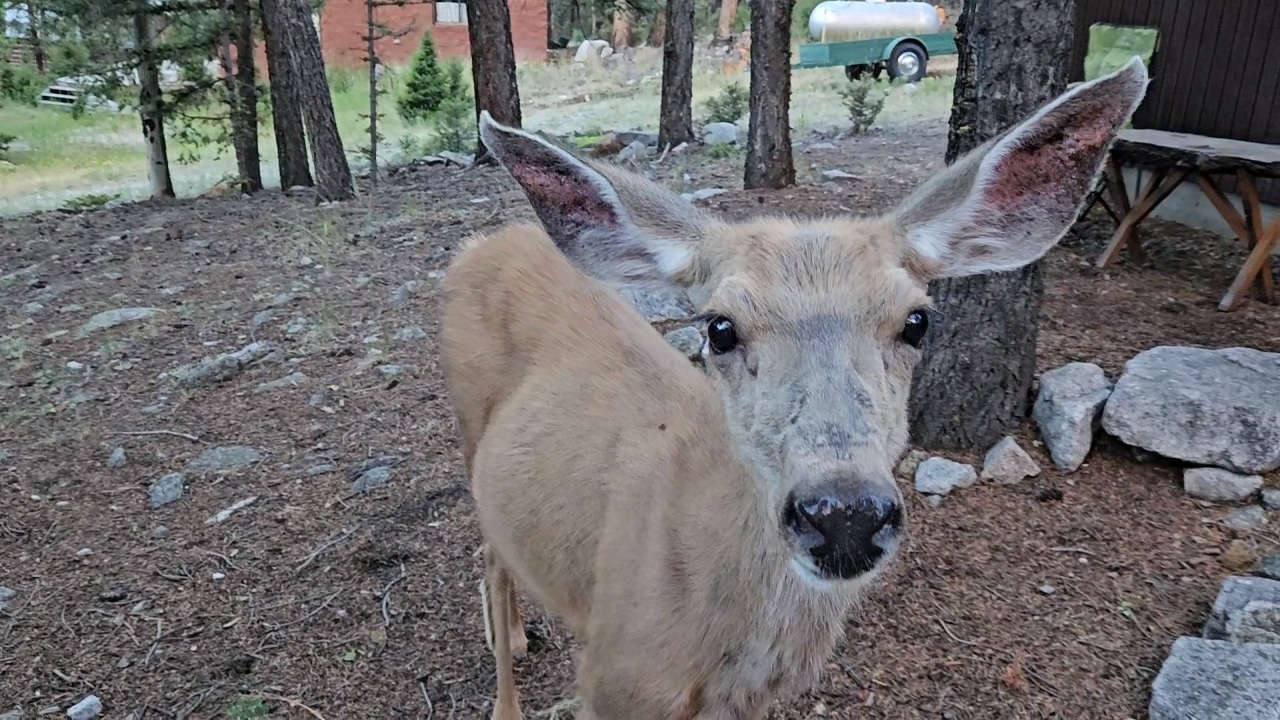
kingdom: Animalia
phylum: Chordata
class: Mammalia
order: Artiodactyla
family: Cervidae
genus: Odocoileus
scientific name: Odocoileus hemionus
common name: Mule deer
